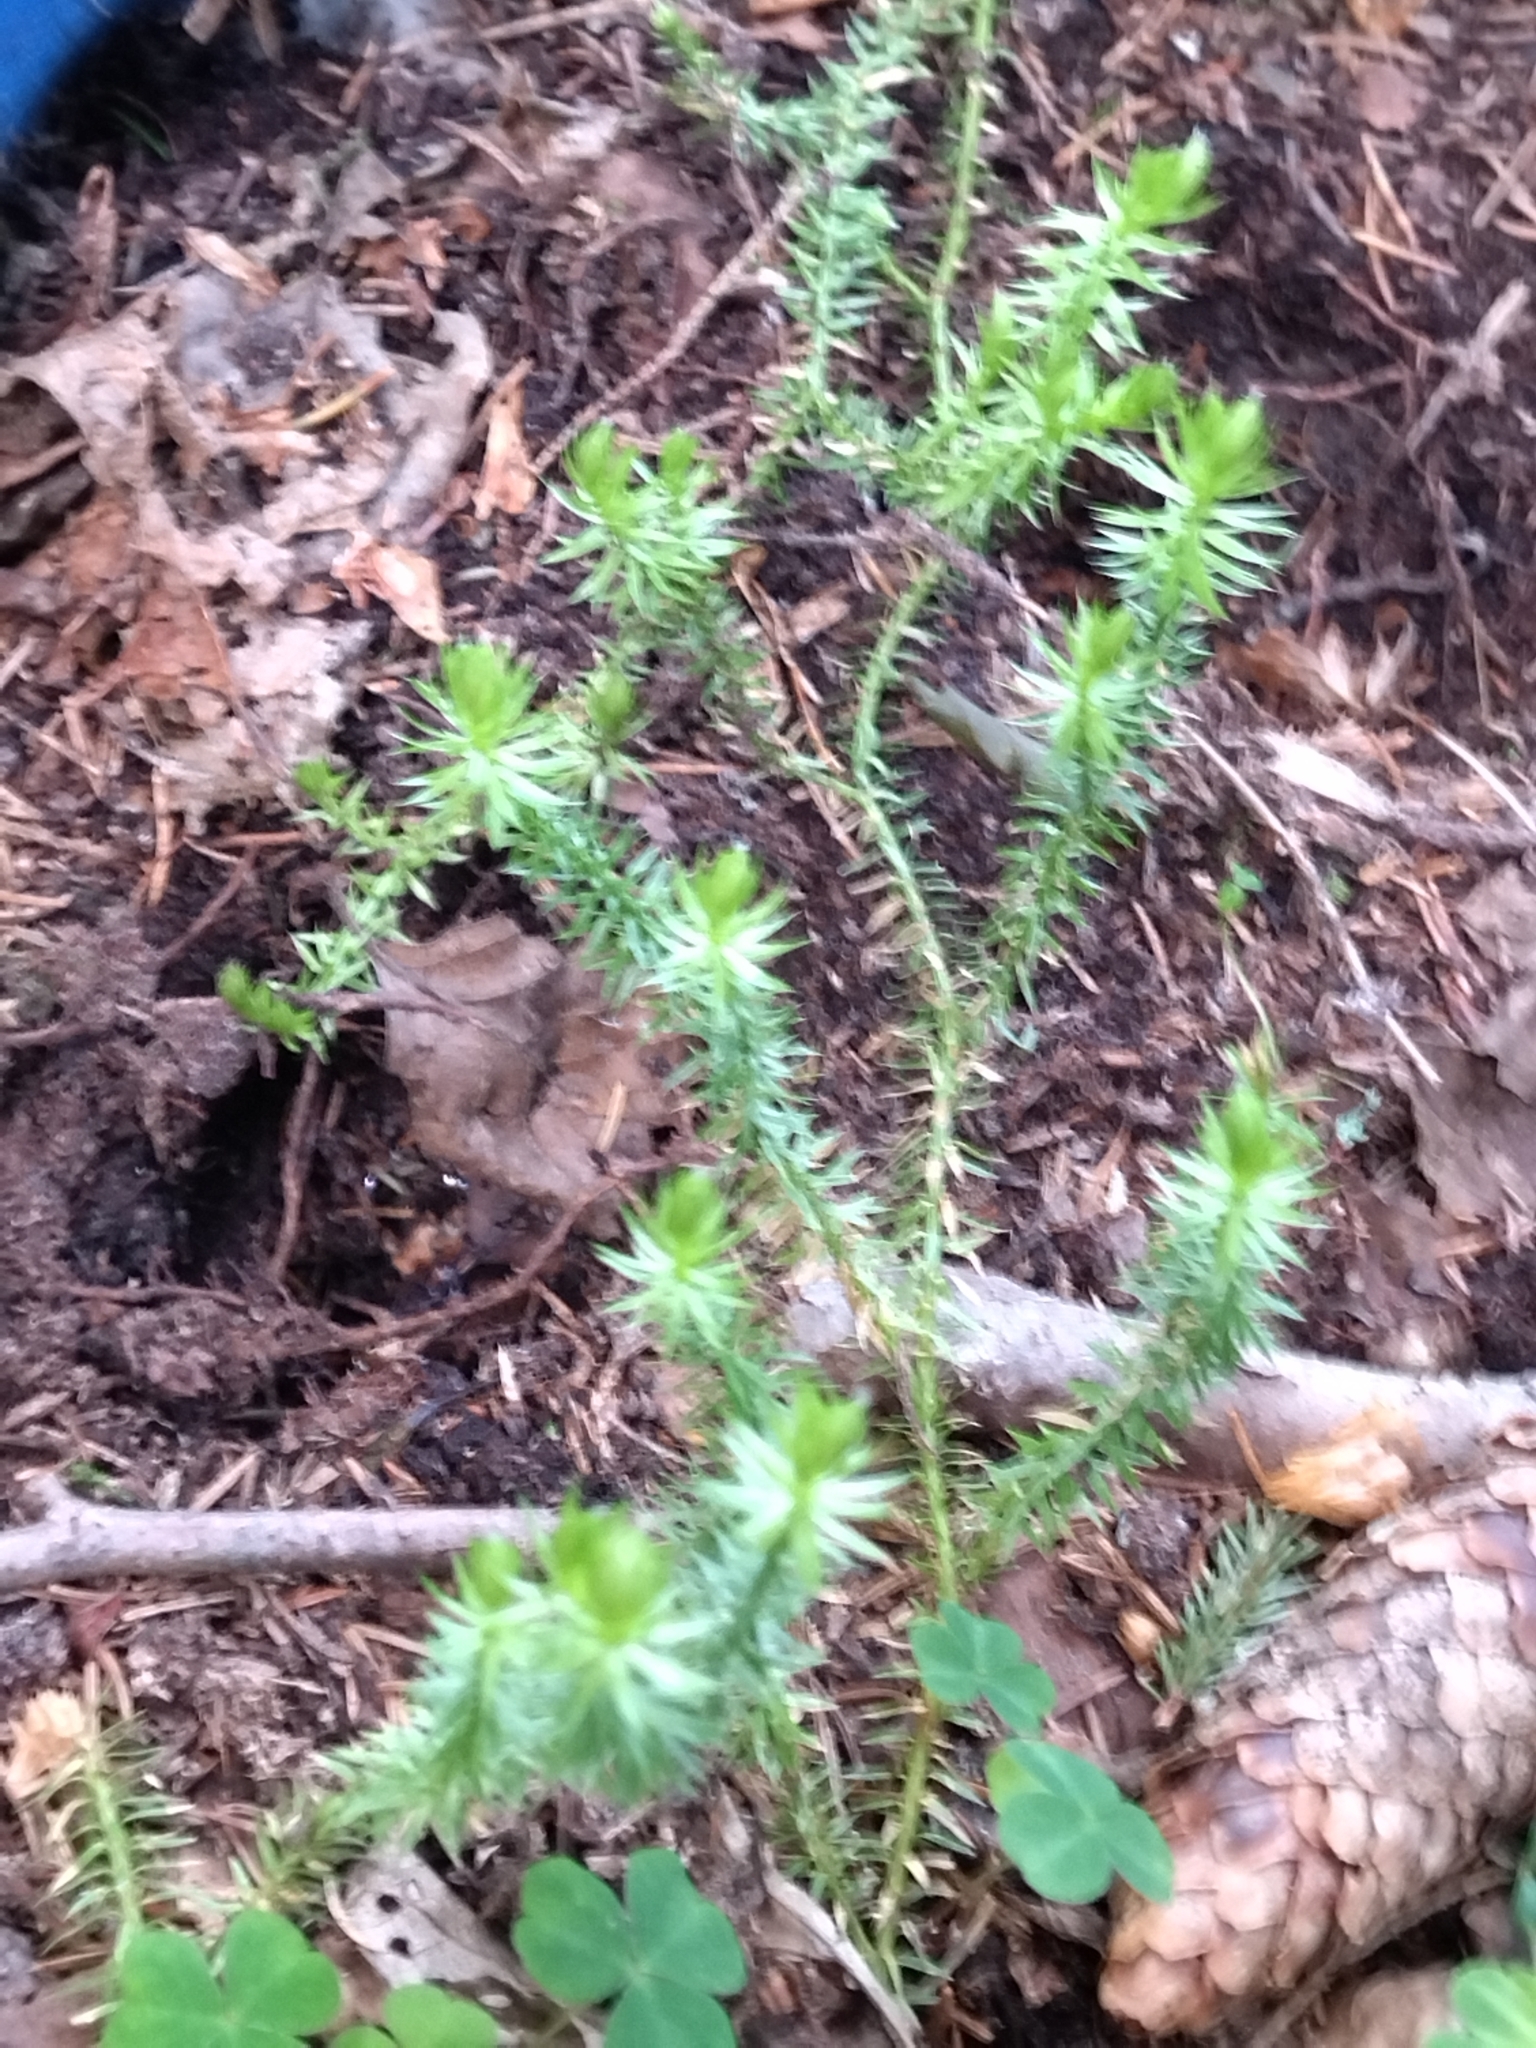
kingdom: Plantae
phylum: Tracheophyta
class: Lycopodiopsida
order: Lycopodiales
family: Lycopodiaceae
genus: Spinulum
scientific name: Spinulum annotinum
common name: Interrupted club-moss
